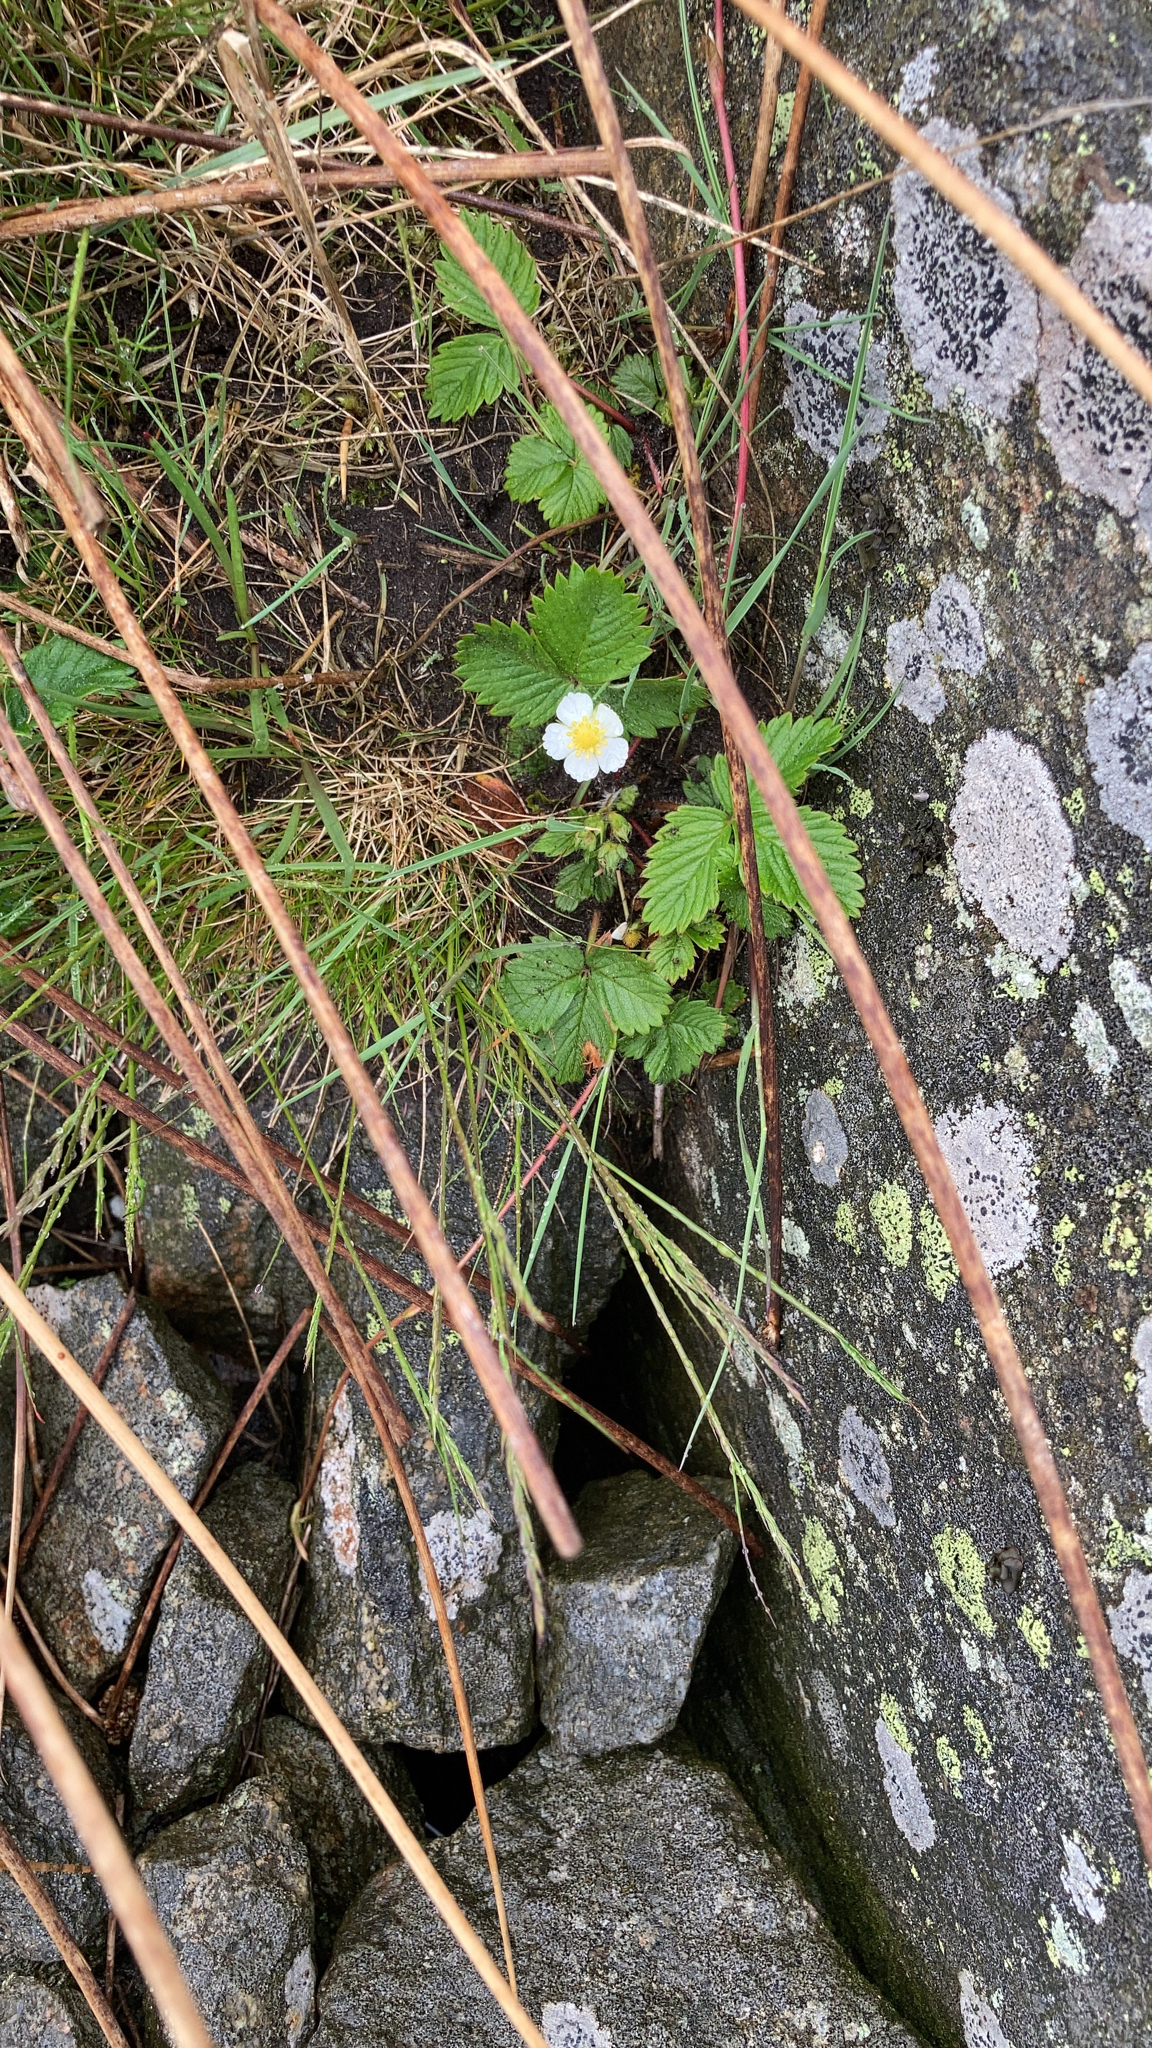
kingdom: Plantae
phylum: Tracheophyta
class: Magnoliopsida
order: Rosales
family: Rosaceae
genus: Fragaria
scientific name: Fragaria vesca
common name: Wild strawberry
